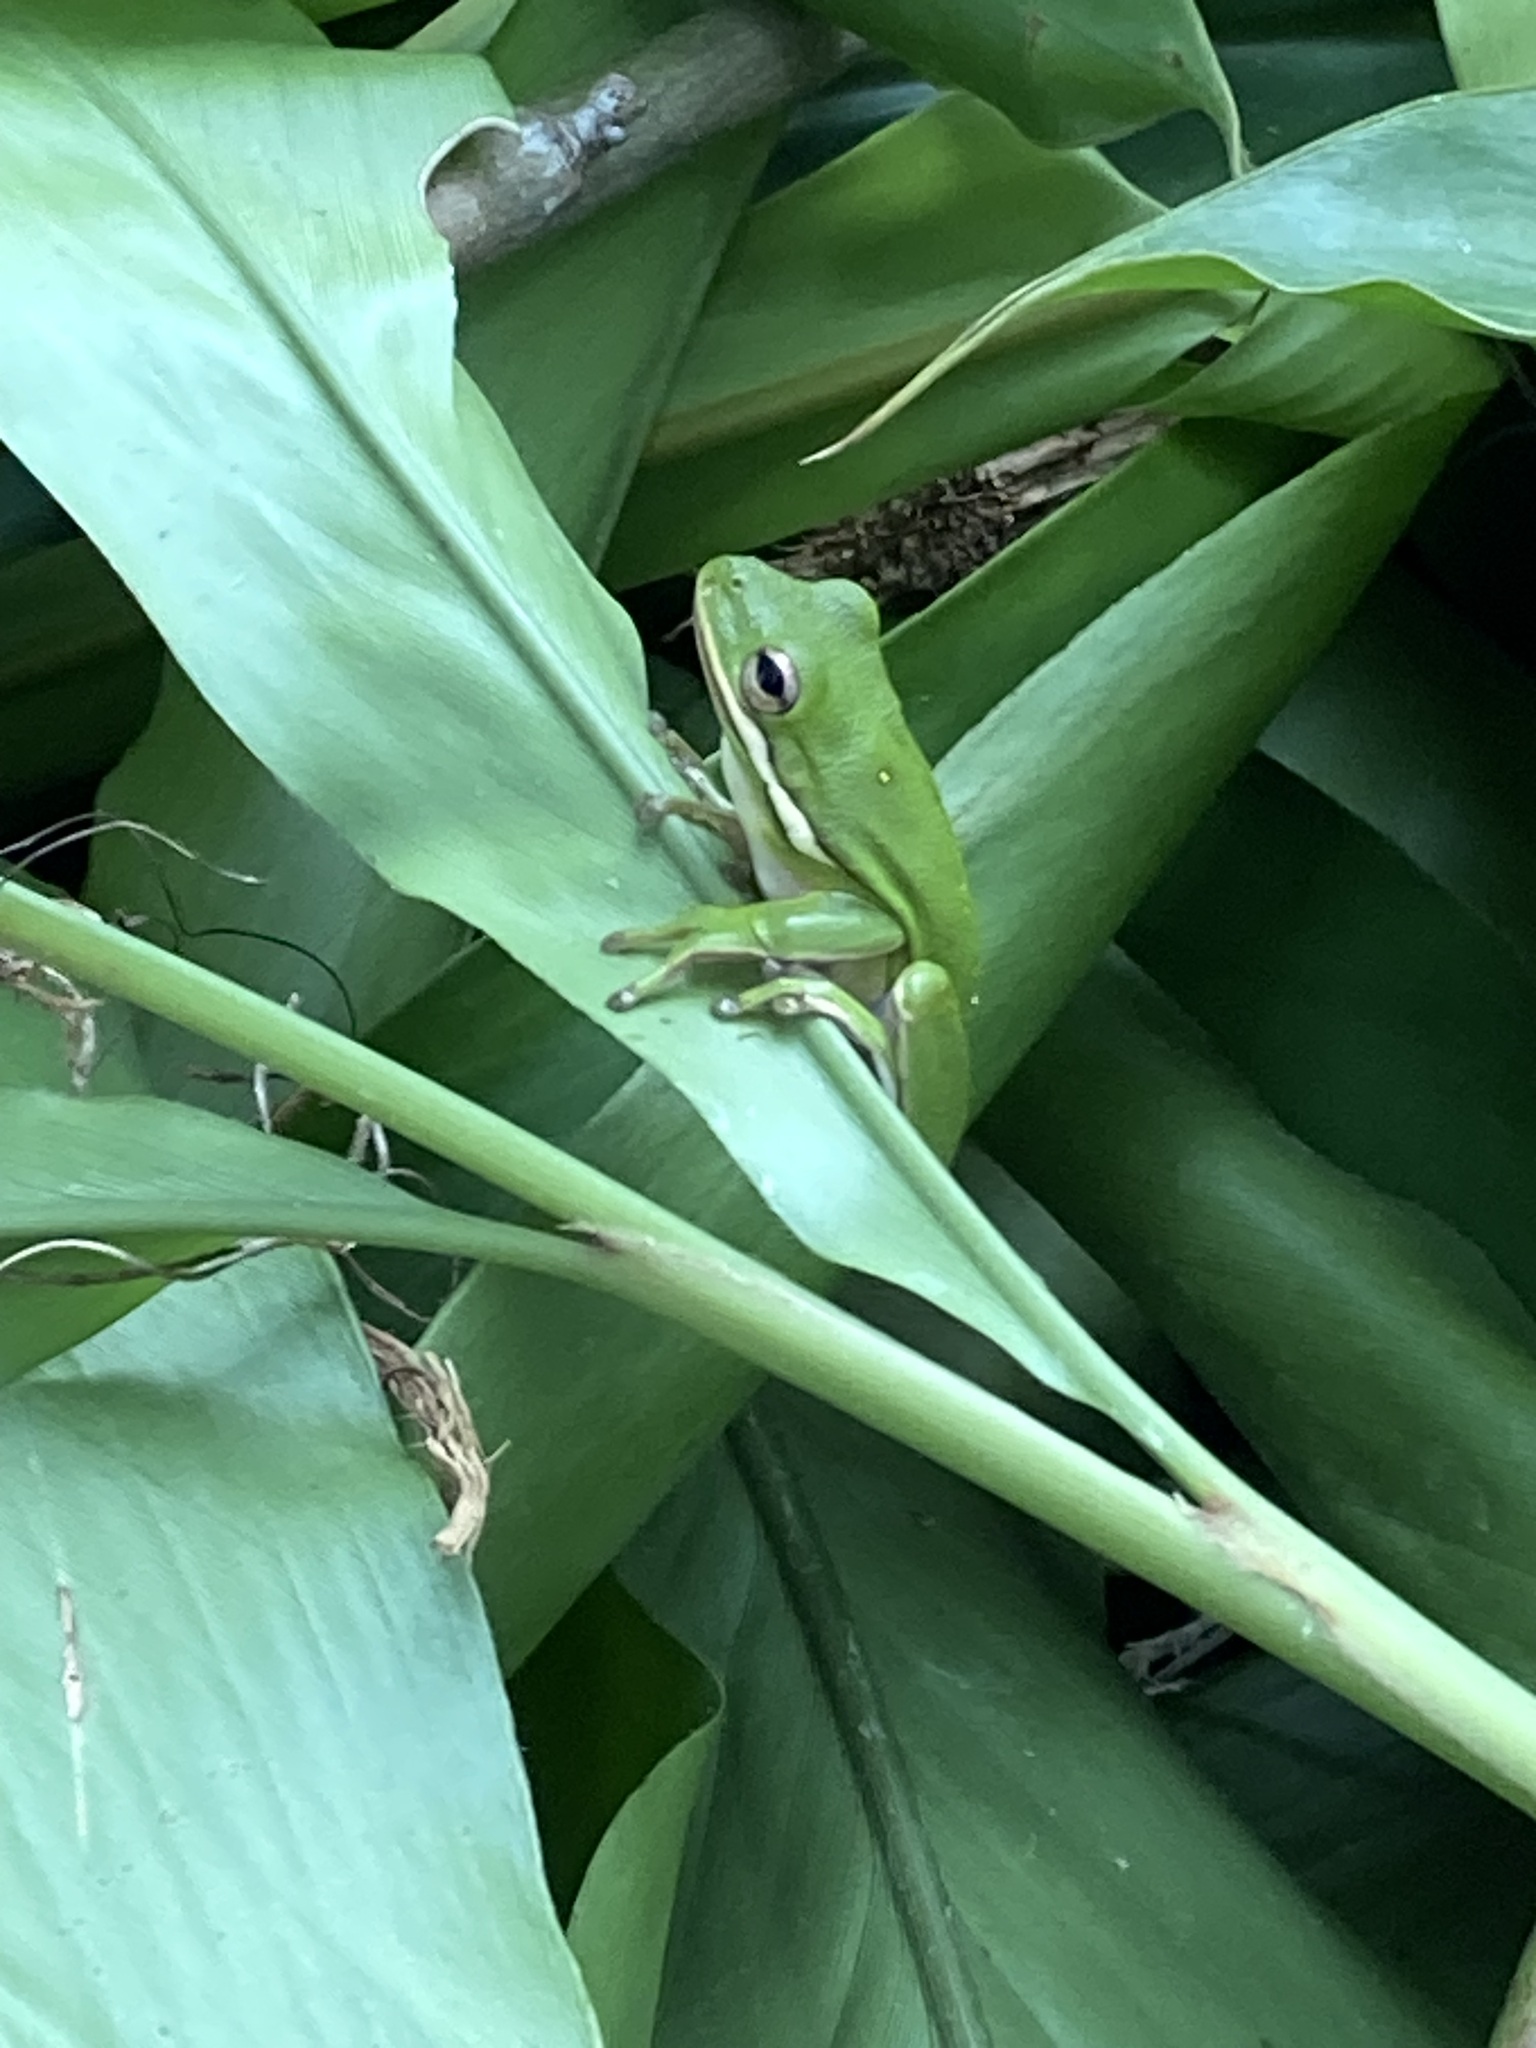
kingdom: Animalia
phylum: Chordata
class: Amphibia
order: Anura
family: Hylidae
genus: Dryophytes
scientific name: Dryophytes cinereus
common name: Green treefrog
